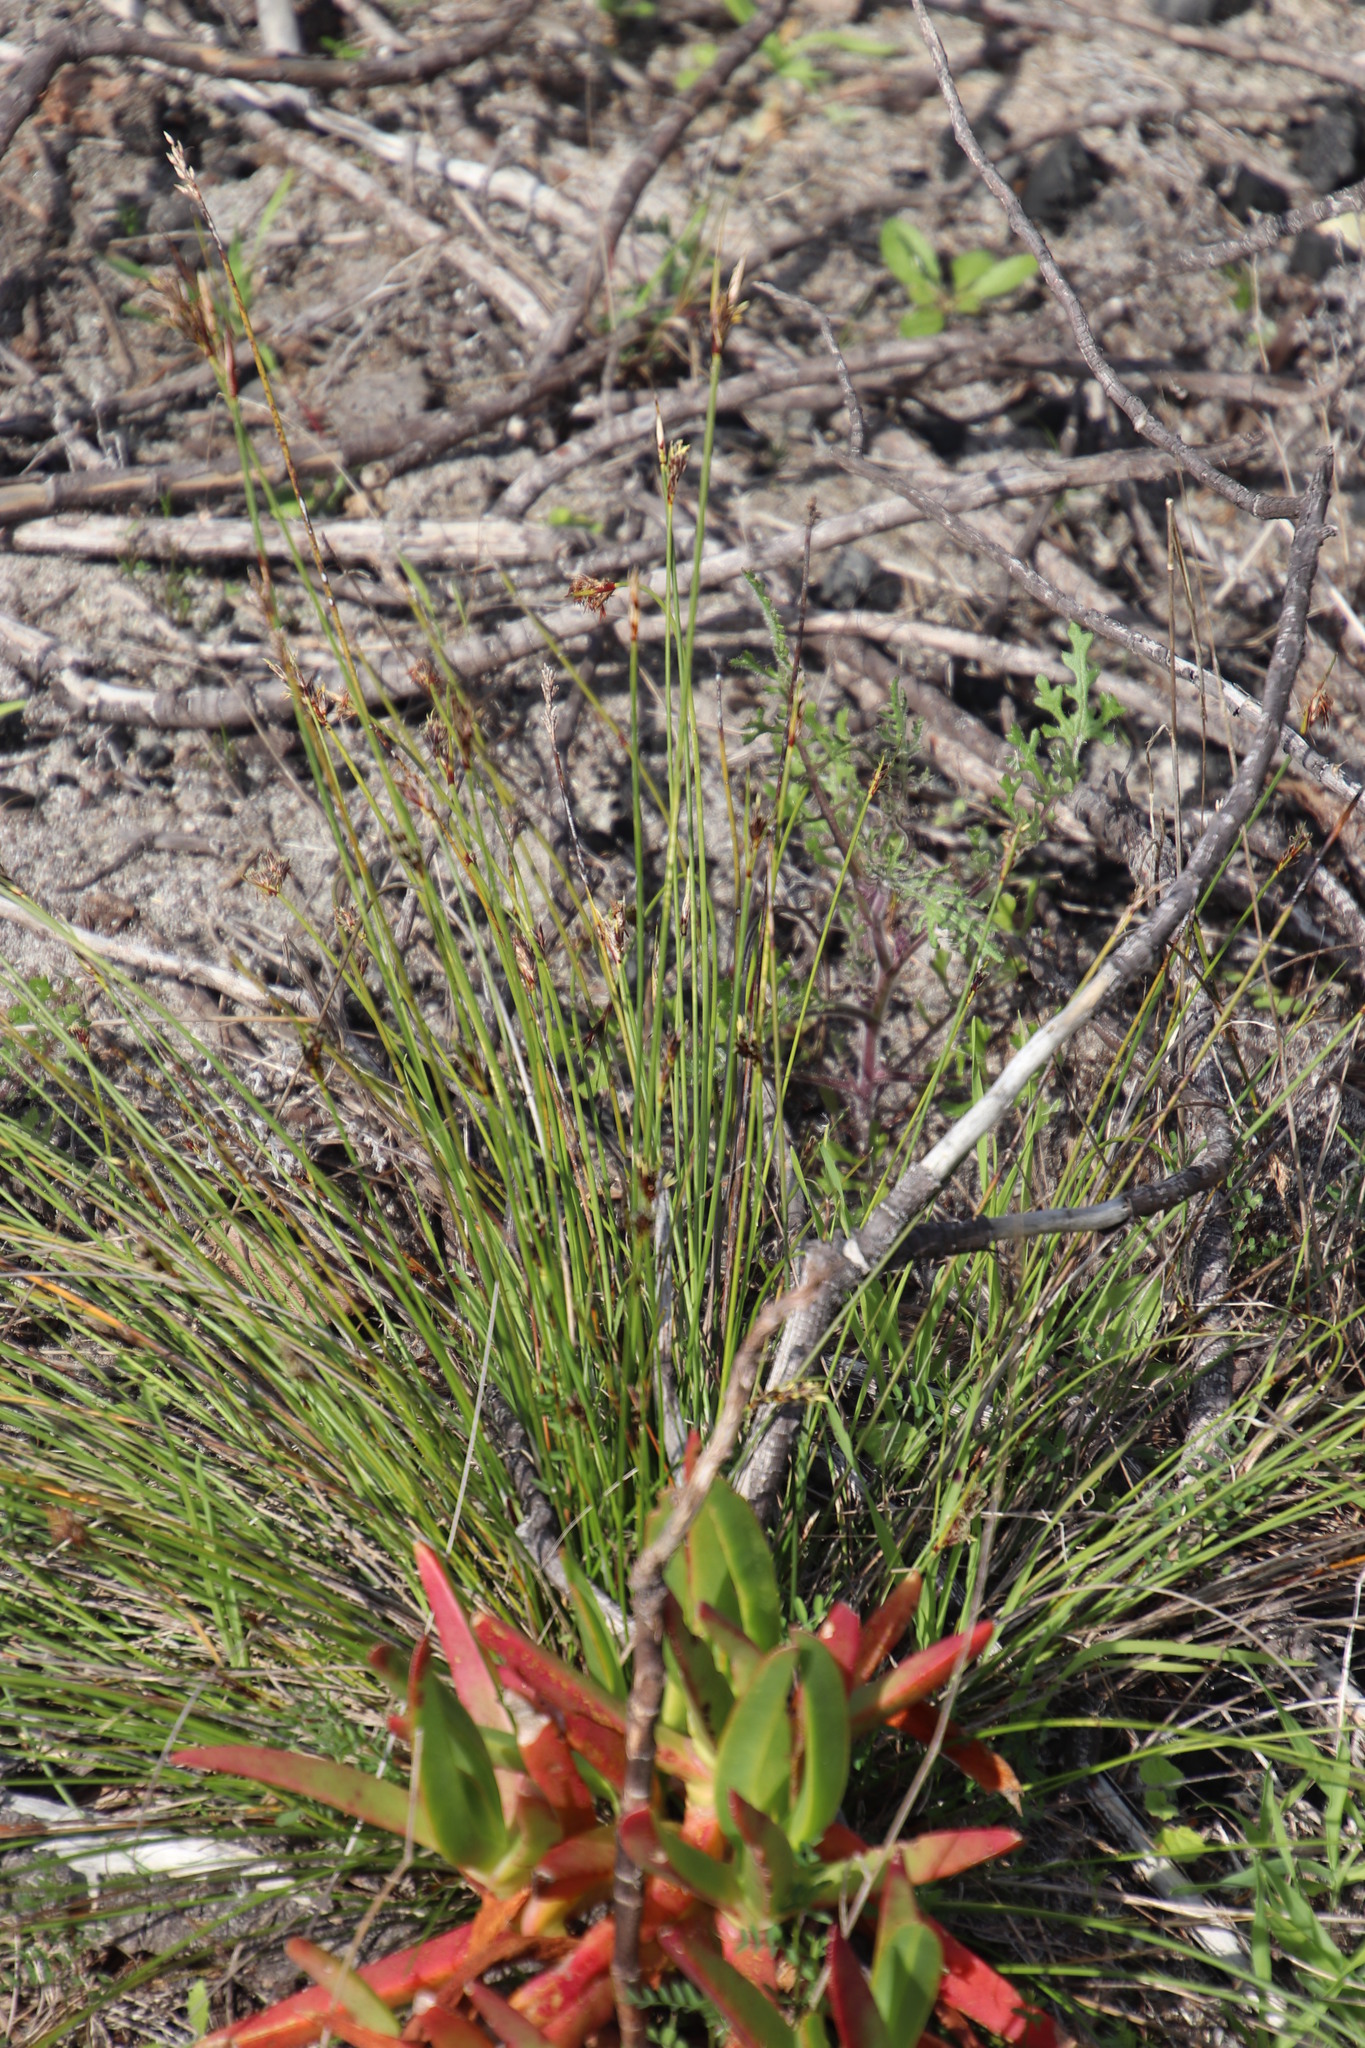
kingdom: Plantae
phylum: Tracheophyta
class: Liliopsida
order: Poales
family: Cyperaceae
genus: Schoenus
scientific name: Schoenus auritus
